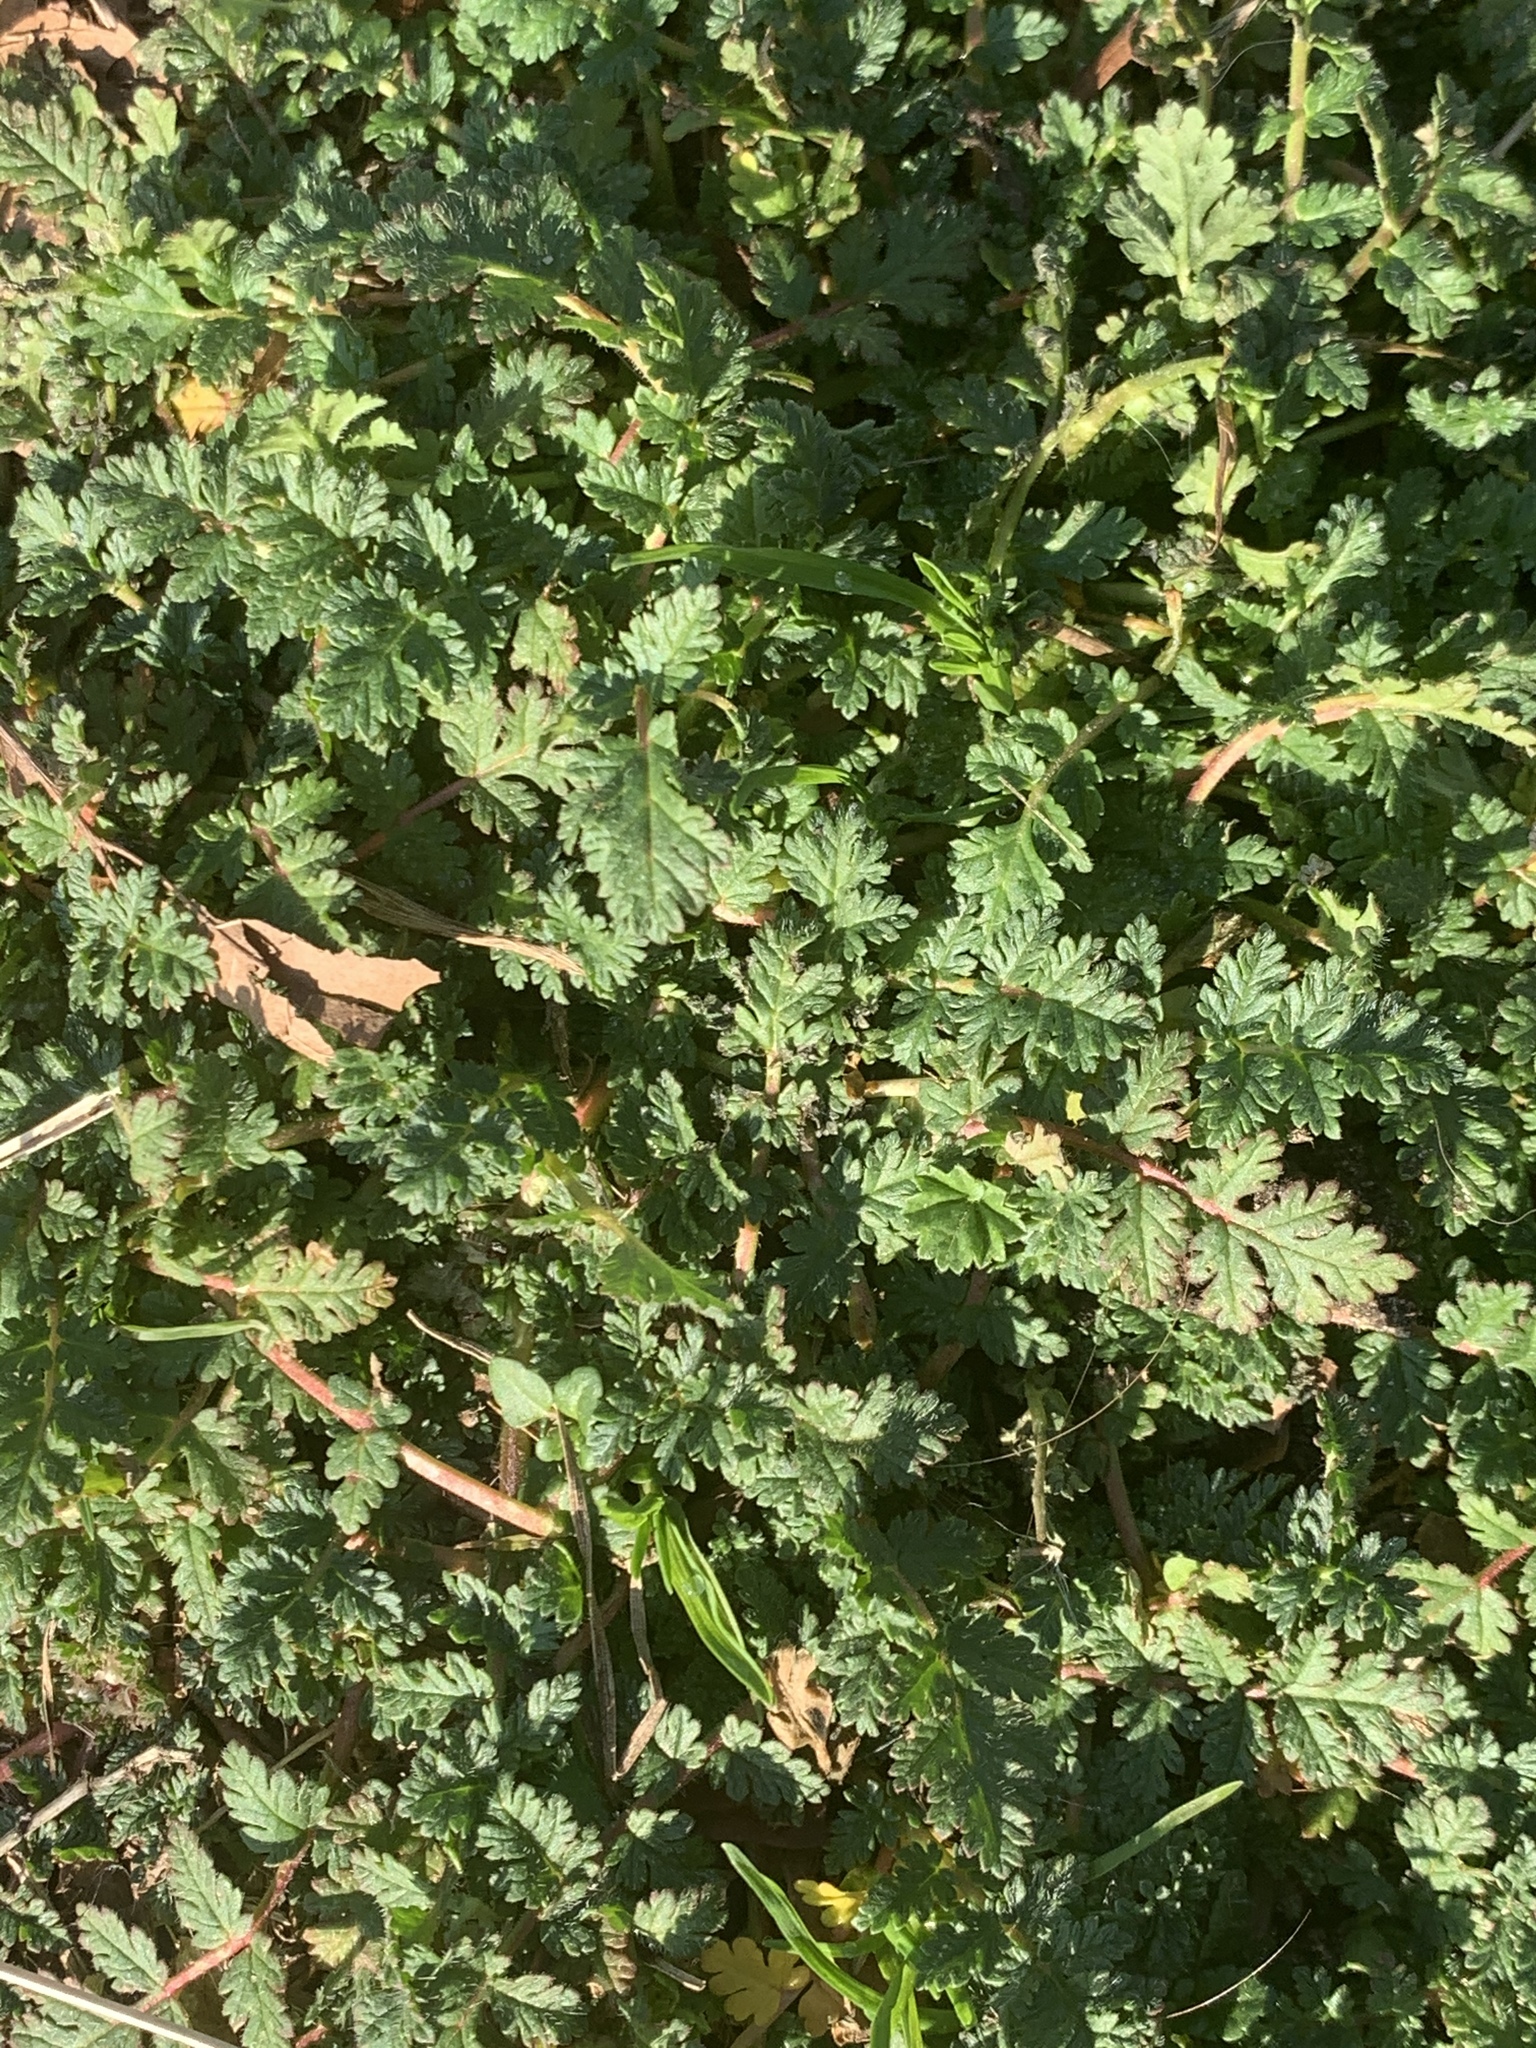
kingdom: Plantae
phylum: Tracheophyta
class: Magnoliopsida
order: Geraniales
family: Geraniaceae
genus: Erodium
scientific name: Erodium cicutarium
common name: Common stork's-bill
